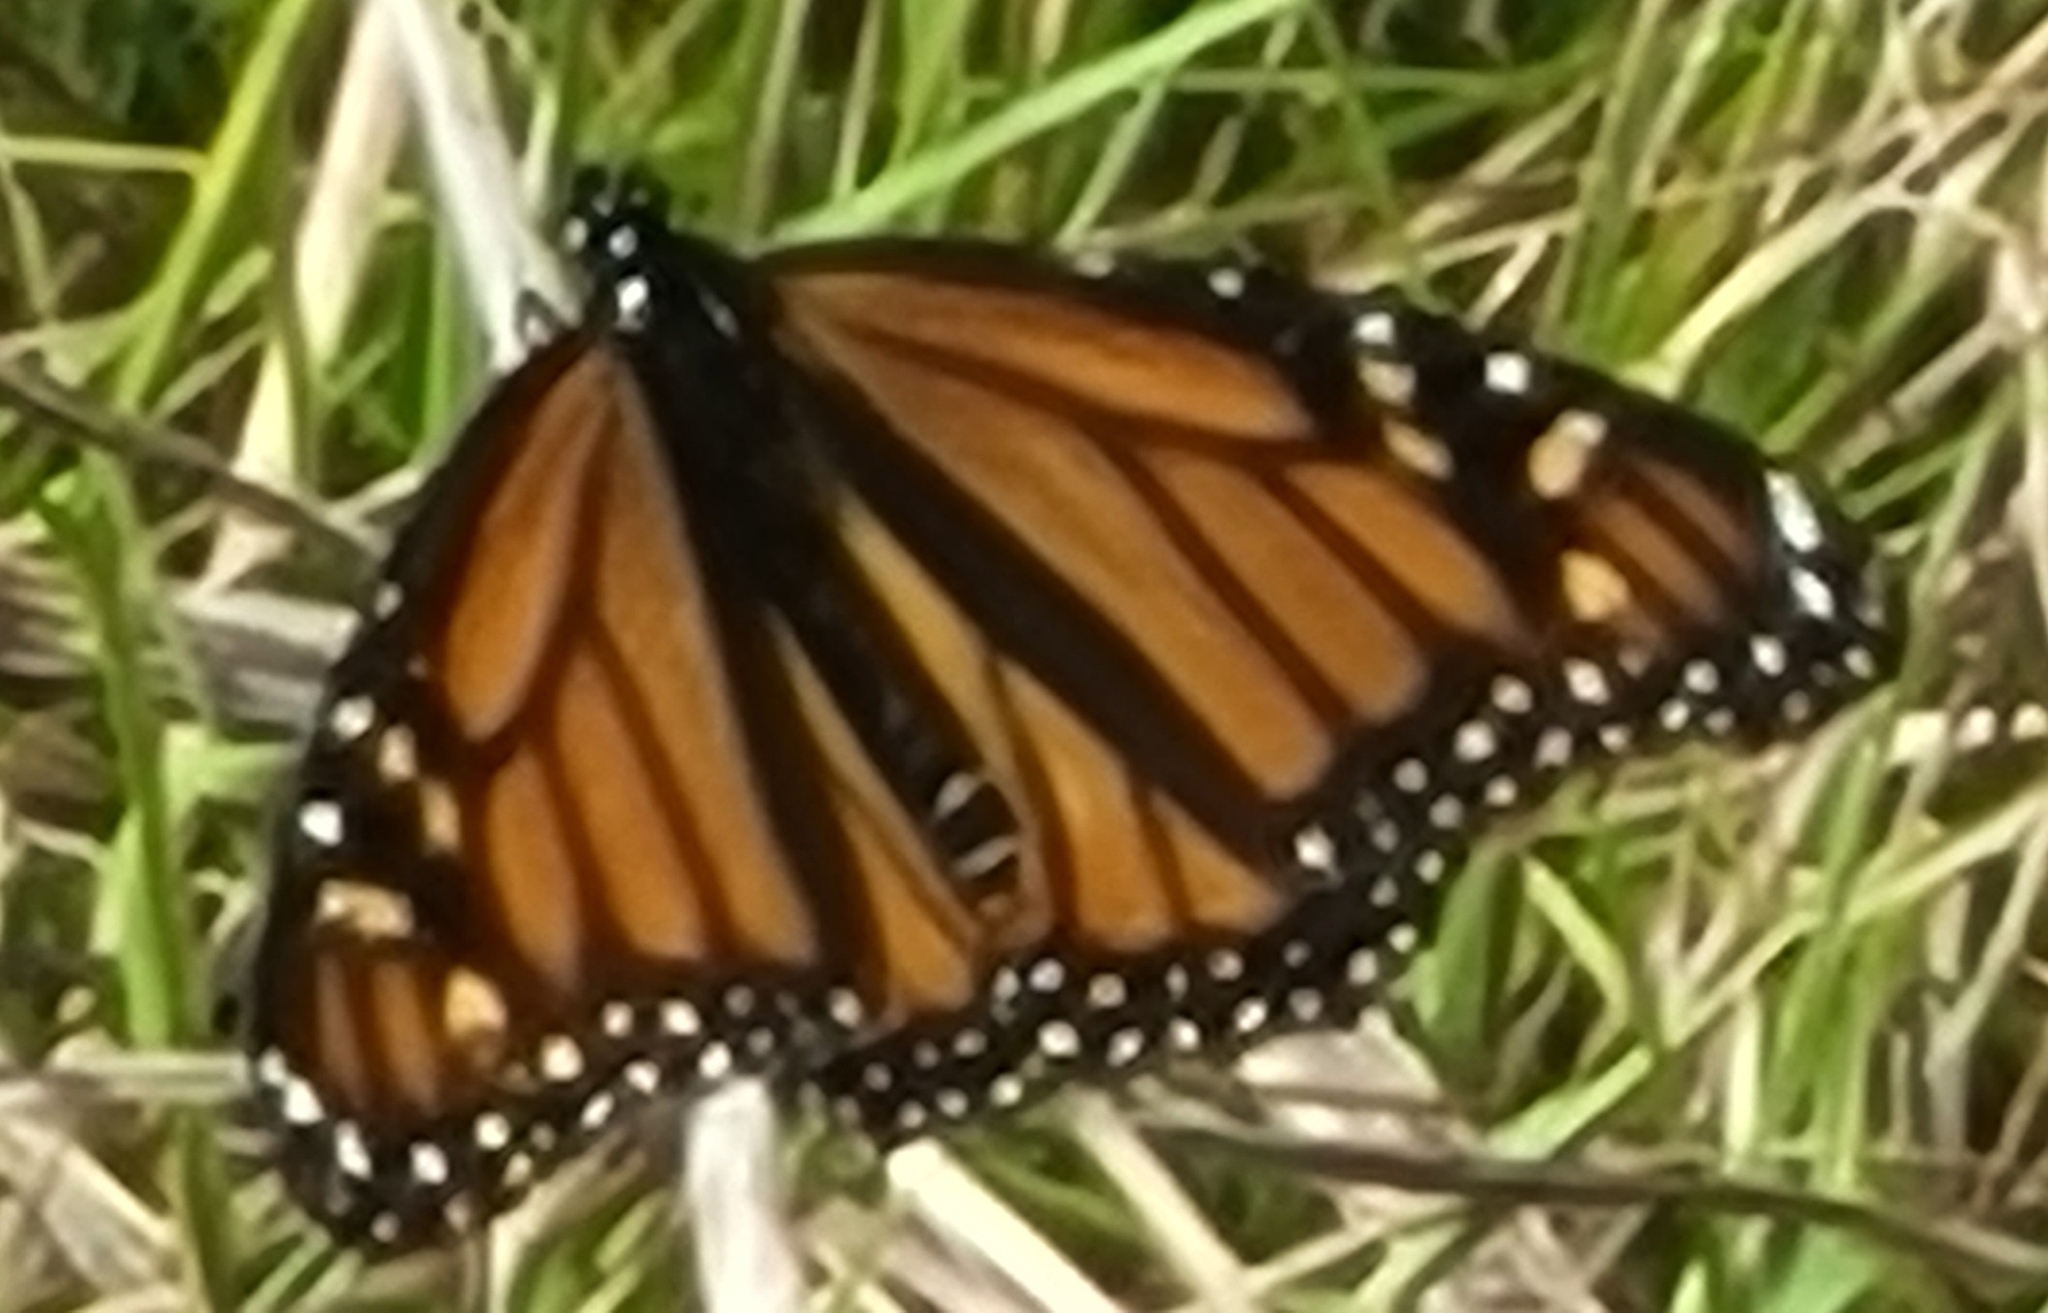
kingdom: Animalia
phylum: Arthropoda
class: Insecta
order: Lepidoptera
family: Nymphalidae
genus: Danaus
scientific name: Danaus plexippus
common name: Monarch
